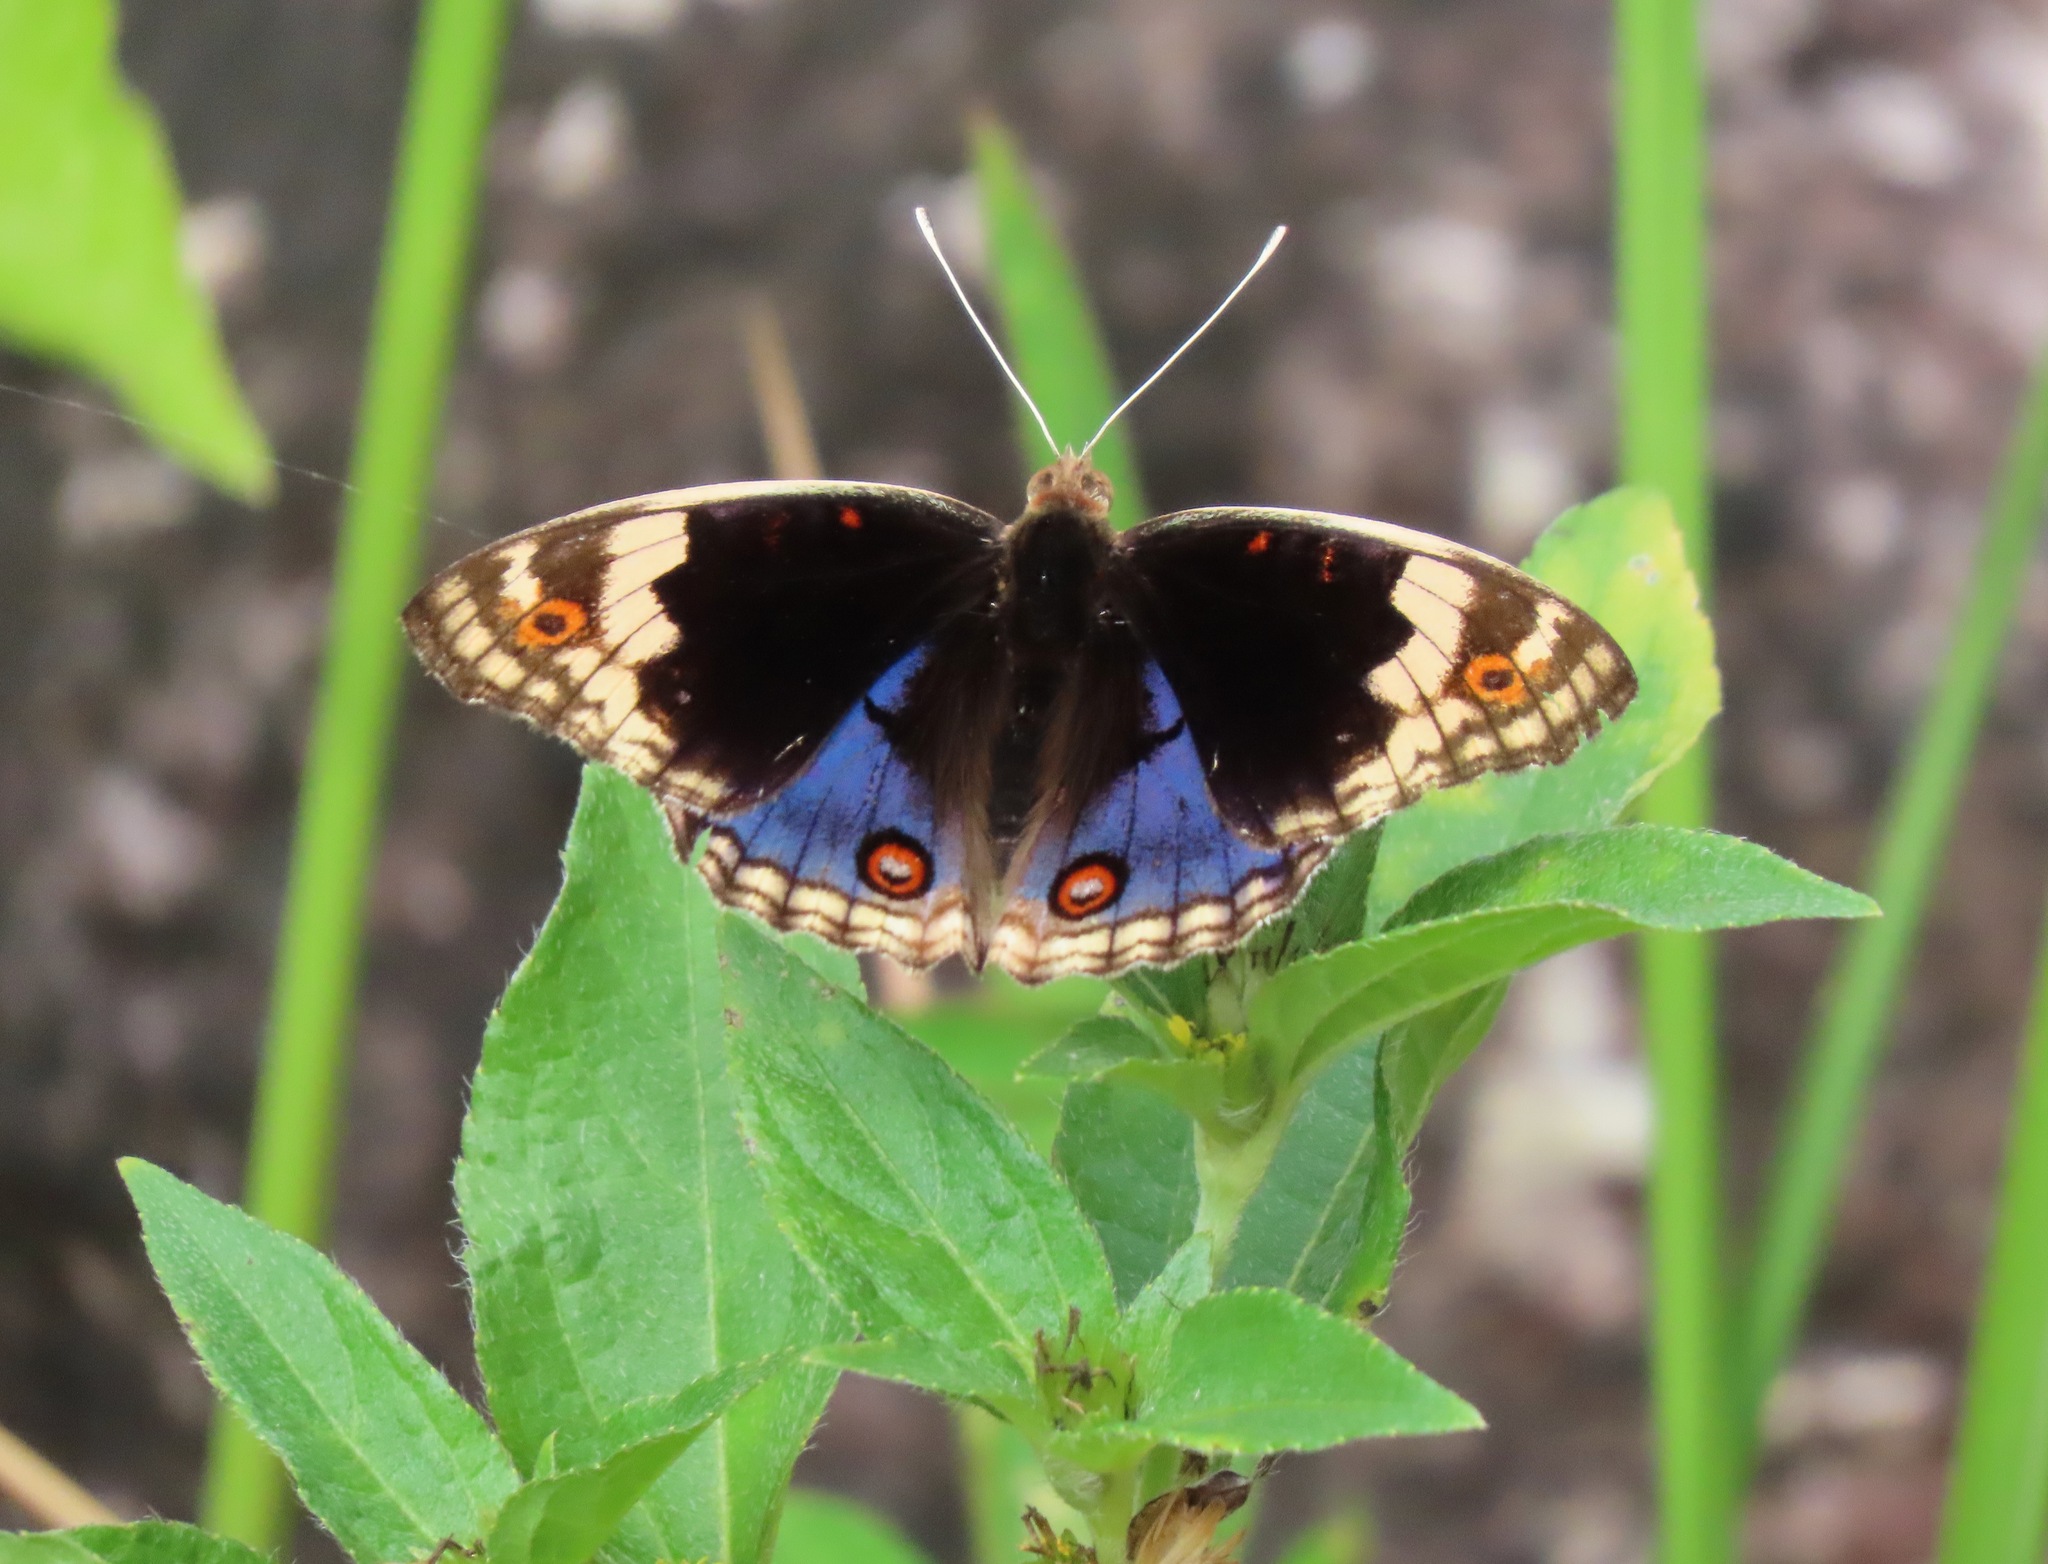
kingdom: Animalia
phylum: Arthropoda
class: Insecta
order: Lepidoptera
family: Nymphalidae
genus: Junonia
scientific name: Junonia orithya
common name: Blue pansy
